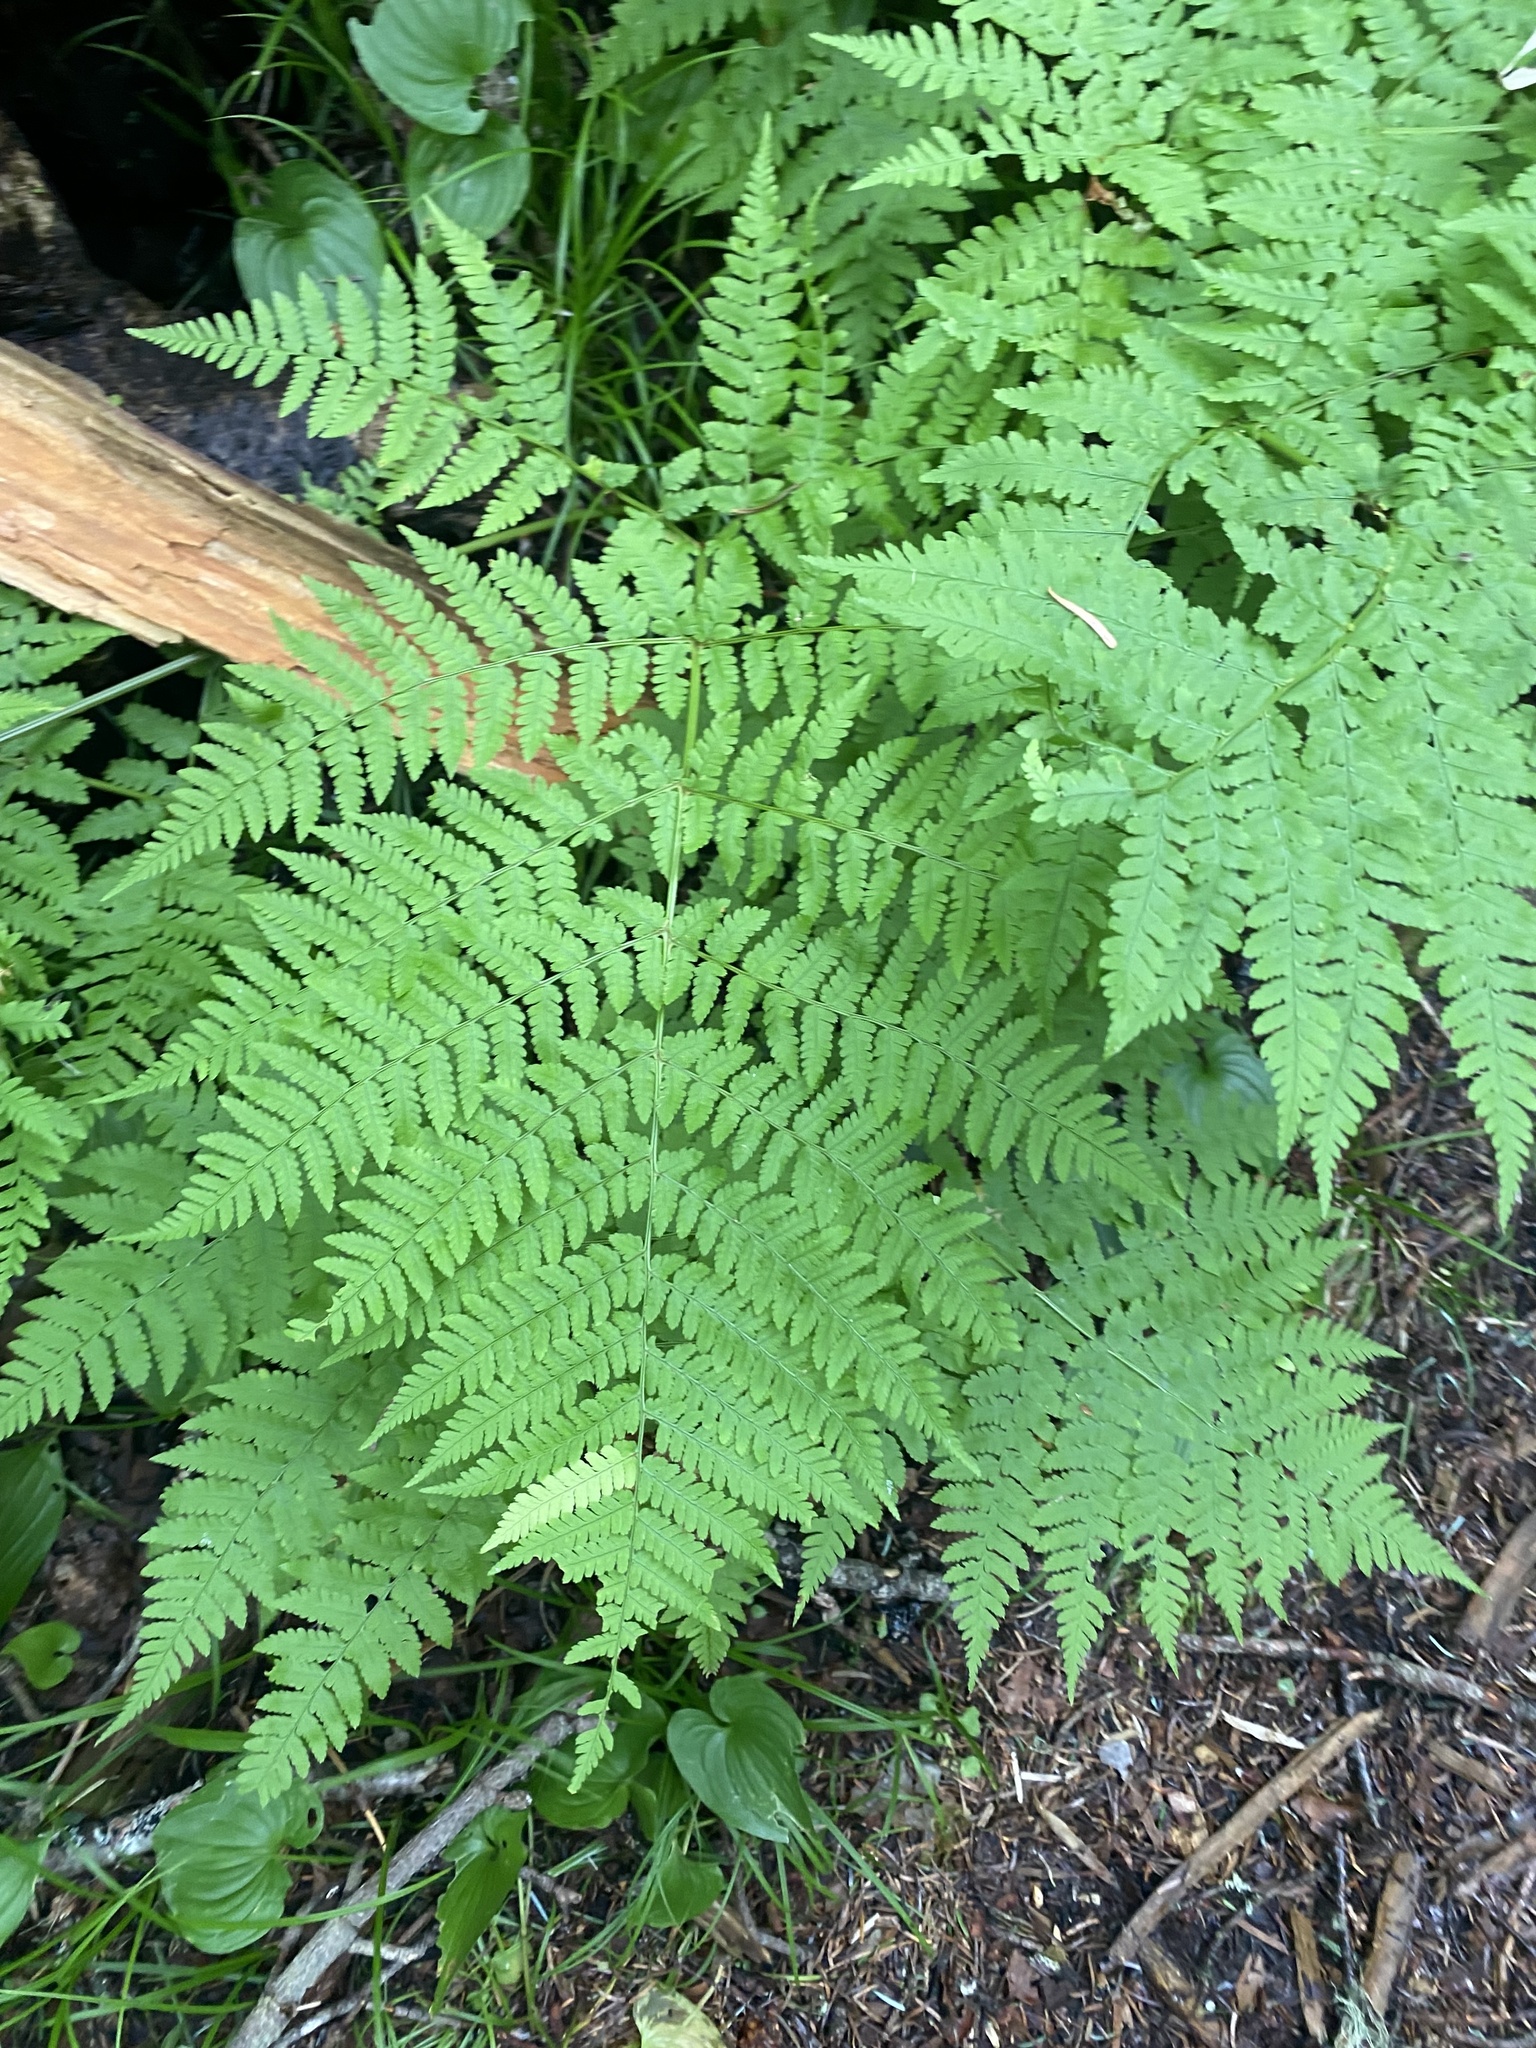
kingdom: Plantae
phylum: Tracheophyta
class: Polypodiopsida
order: Polypodiales
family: Dryopteridaceae
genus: Dryopteris
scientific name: Dryopteris expansa
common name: Northern buckler fern
